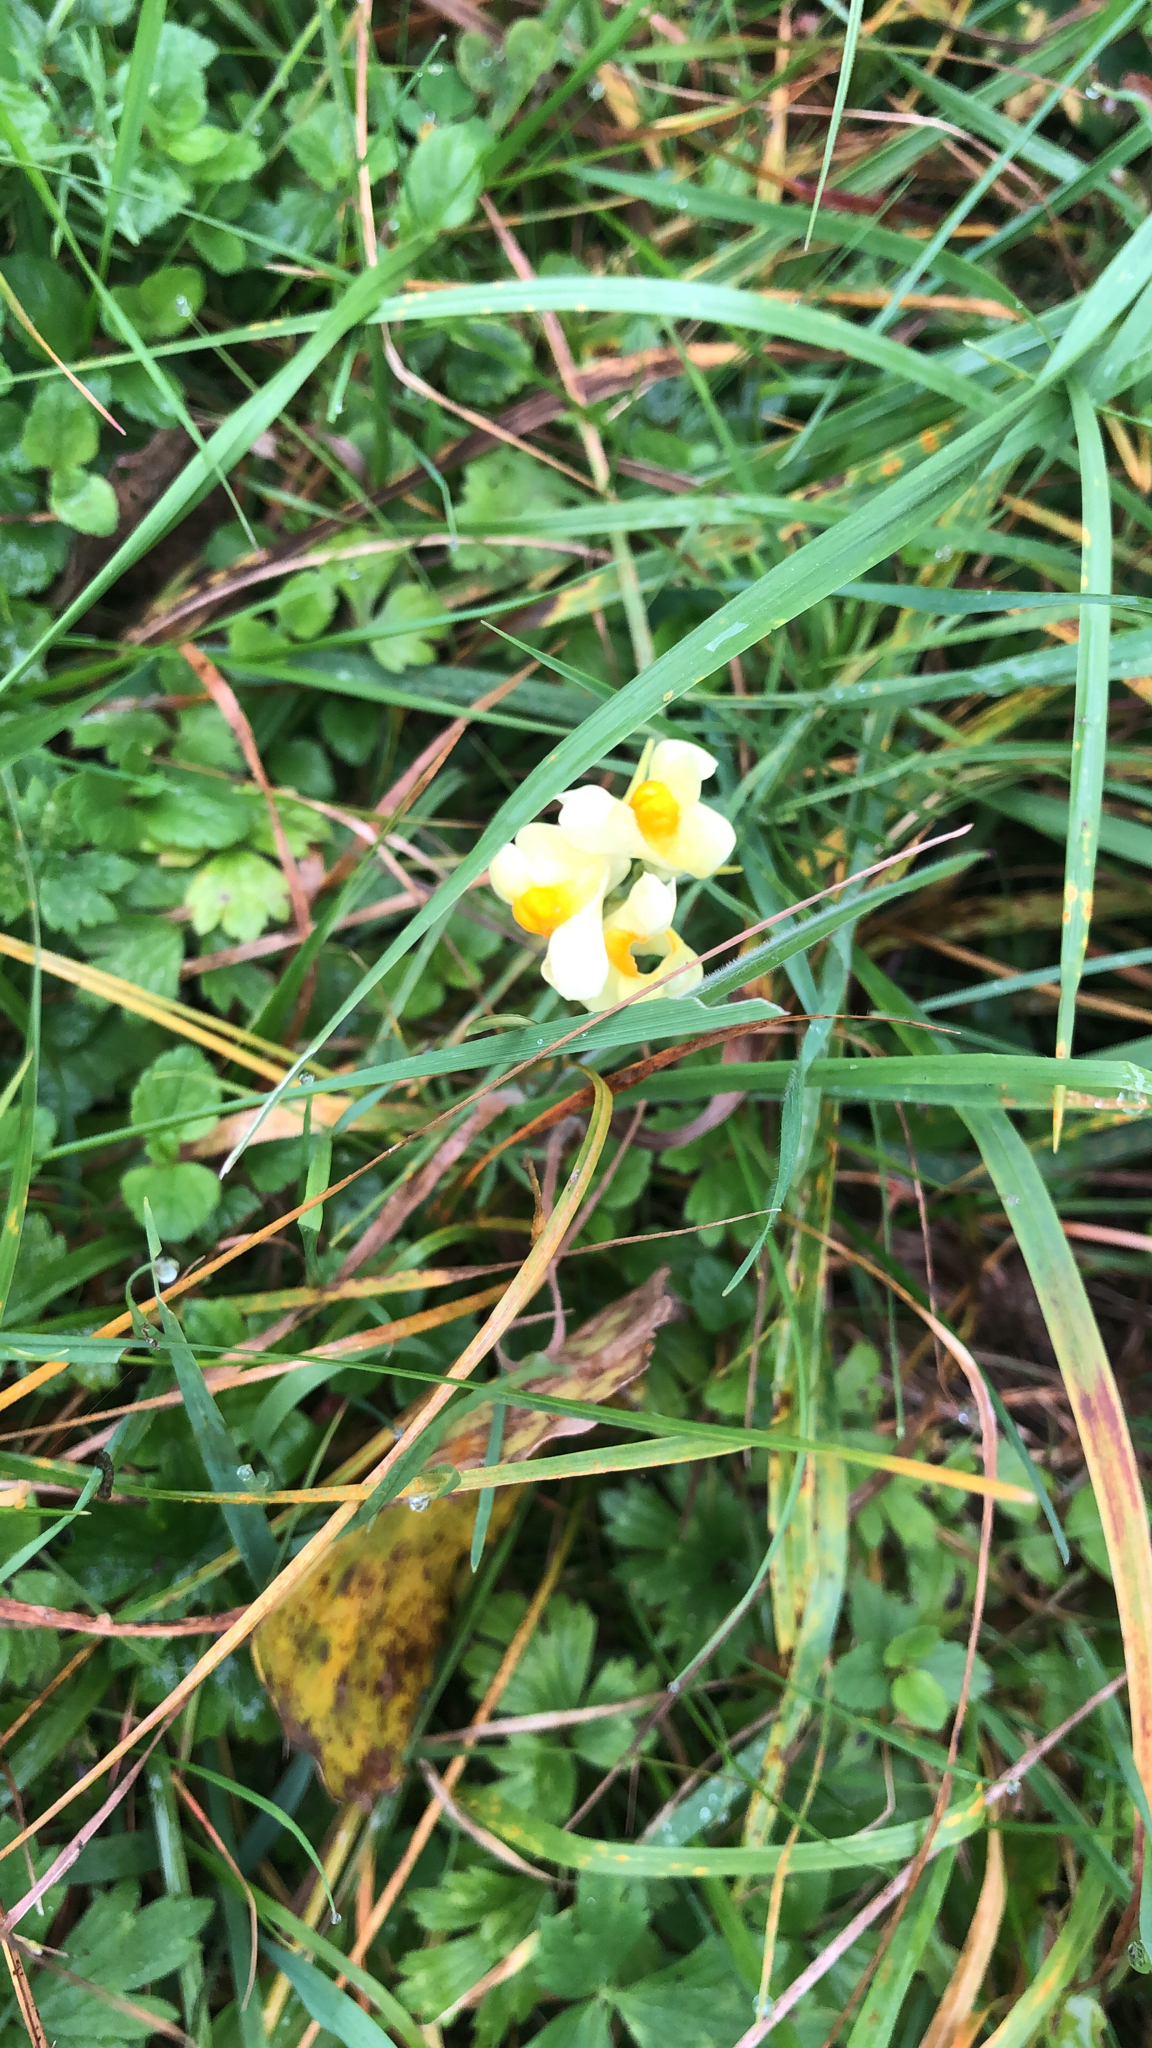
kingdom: Plantae
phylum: Tracheophyta
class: Magnoliopsida
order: Lamiales
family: Plantaginaceae
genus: Linaria
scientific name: Linaria vulgaris
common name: Butter and eggs
